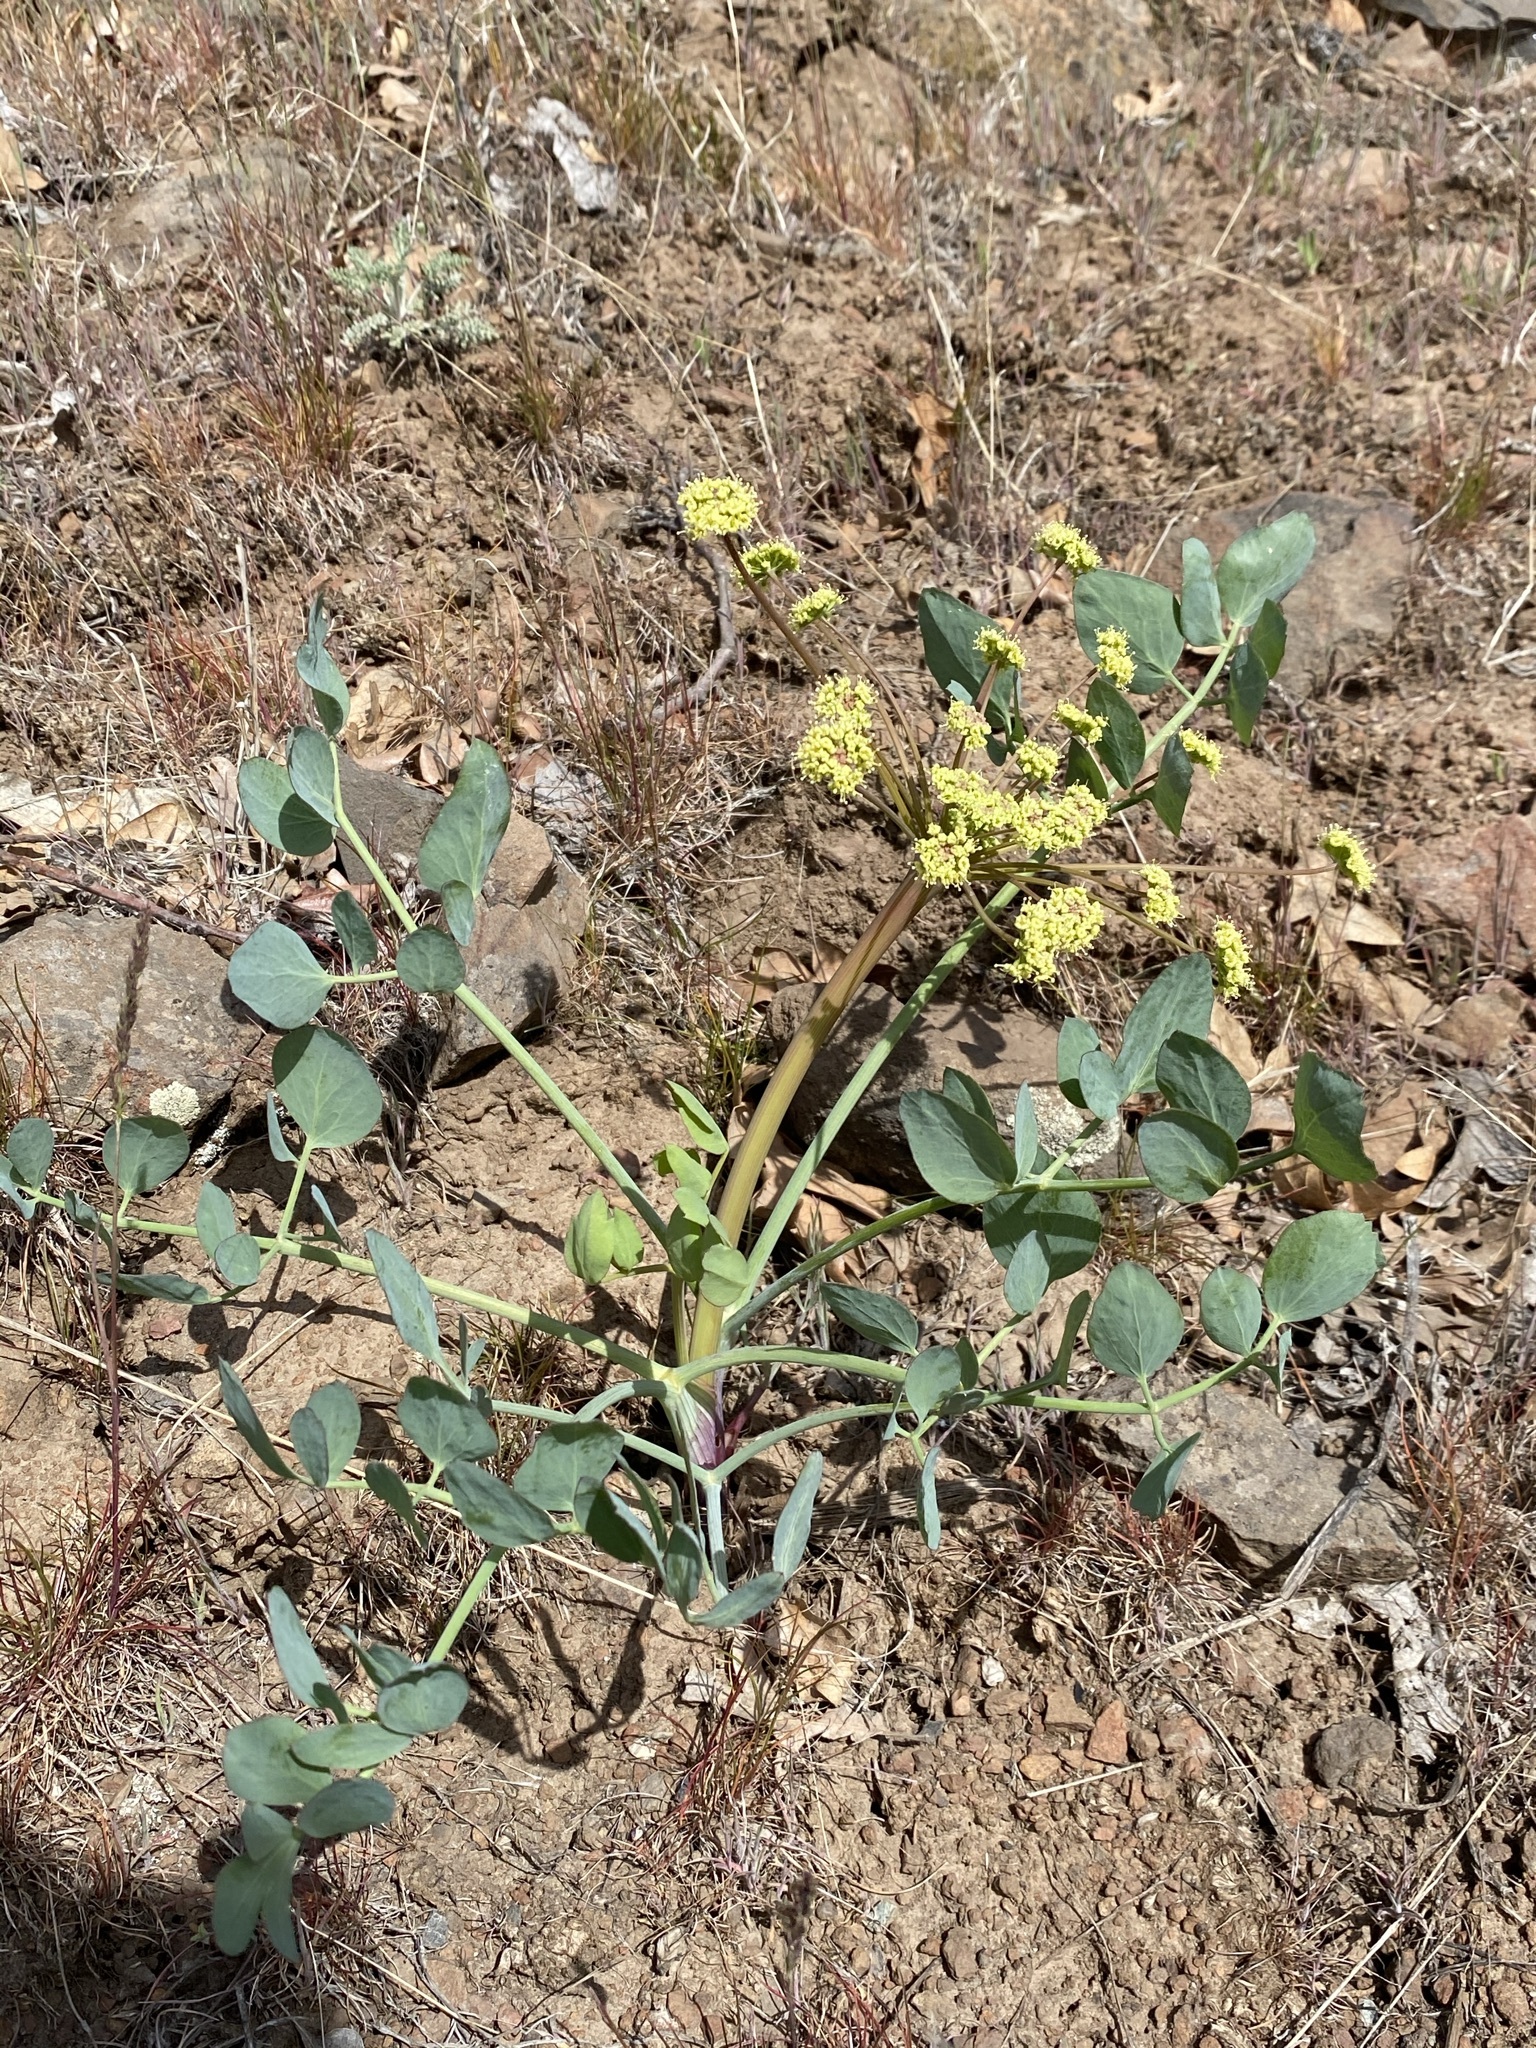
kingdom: Plantae
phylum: Tracheophyta
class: Magnoliopsida
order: Apiales
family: Apiaceae
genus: Lomatium
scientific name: Lomatium nudicaule
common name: Pestle lomatium
